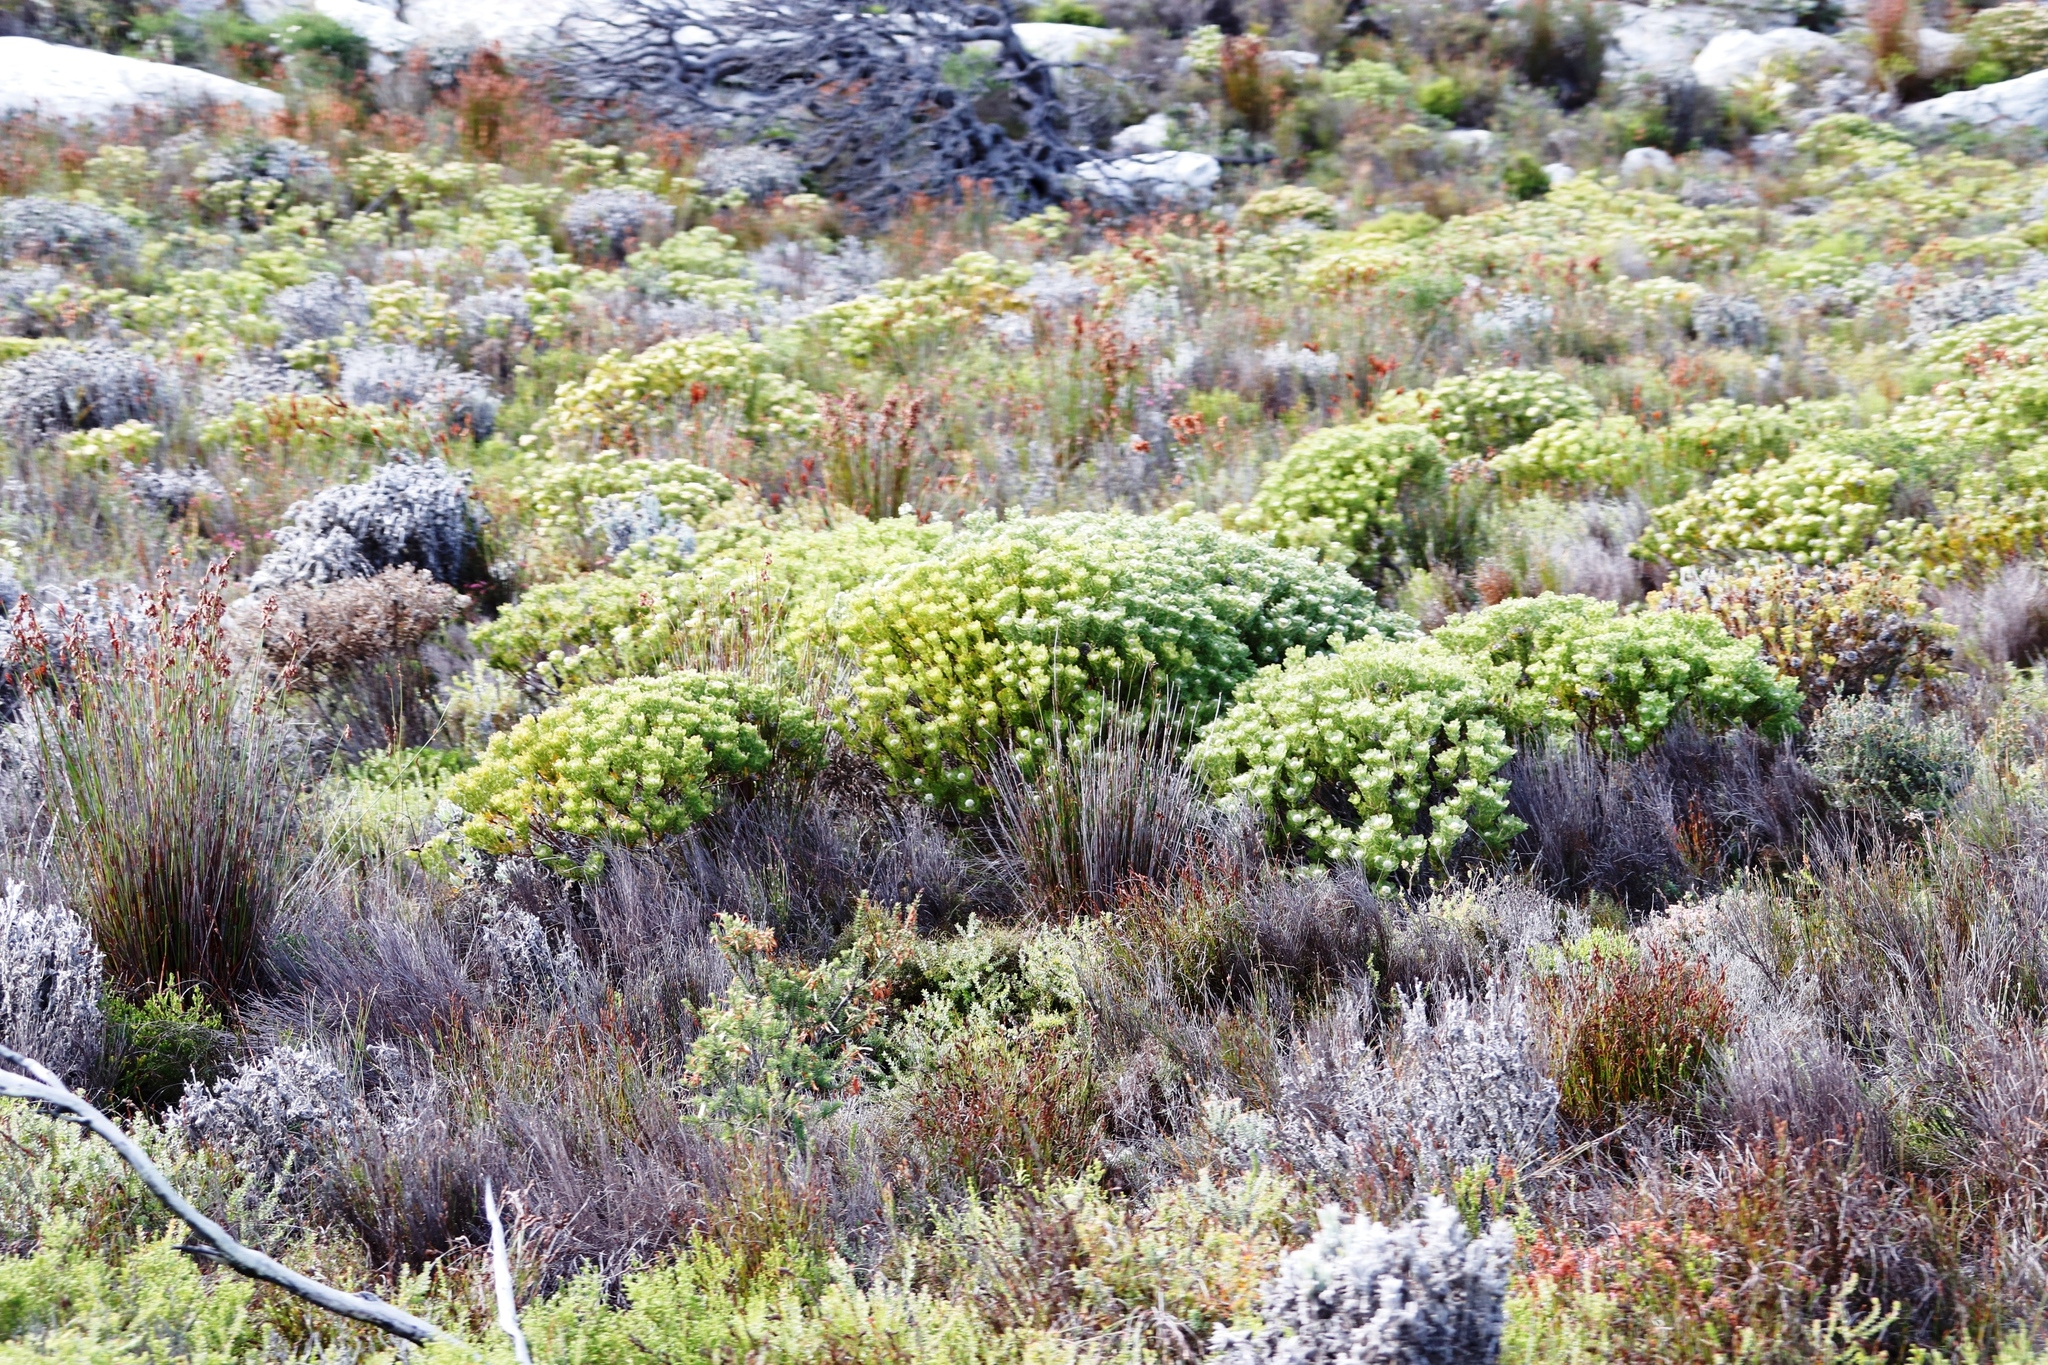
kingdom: Plantae
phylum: Tracheophyta
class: Magnoliopsida
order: Proteales
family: Proteaceae
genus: Serruria
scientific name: Serruria villosa
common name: Golden spiderhead
